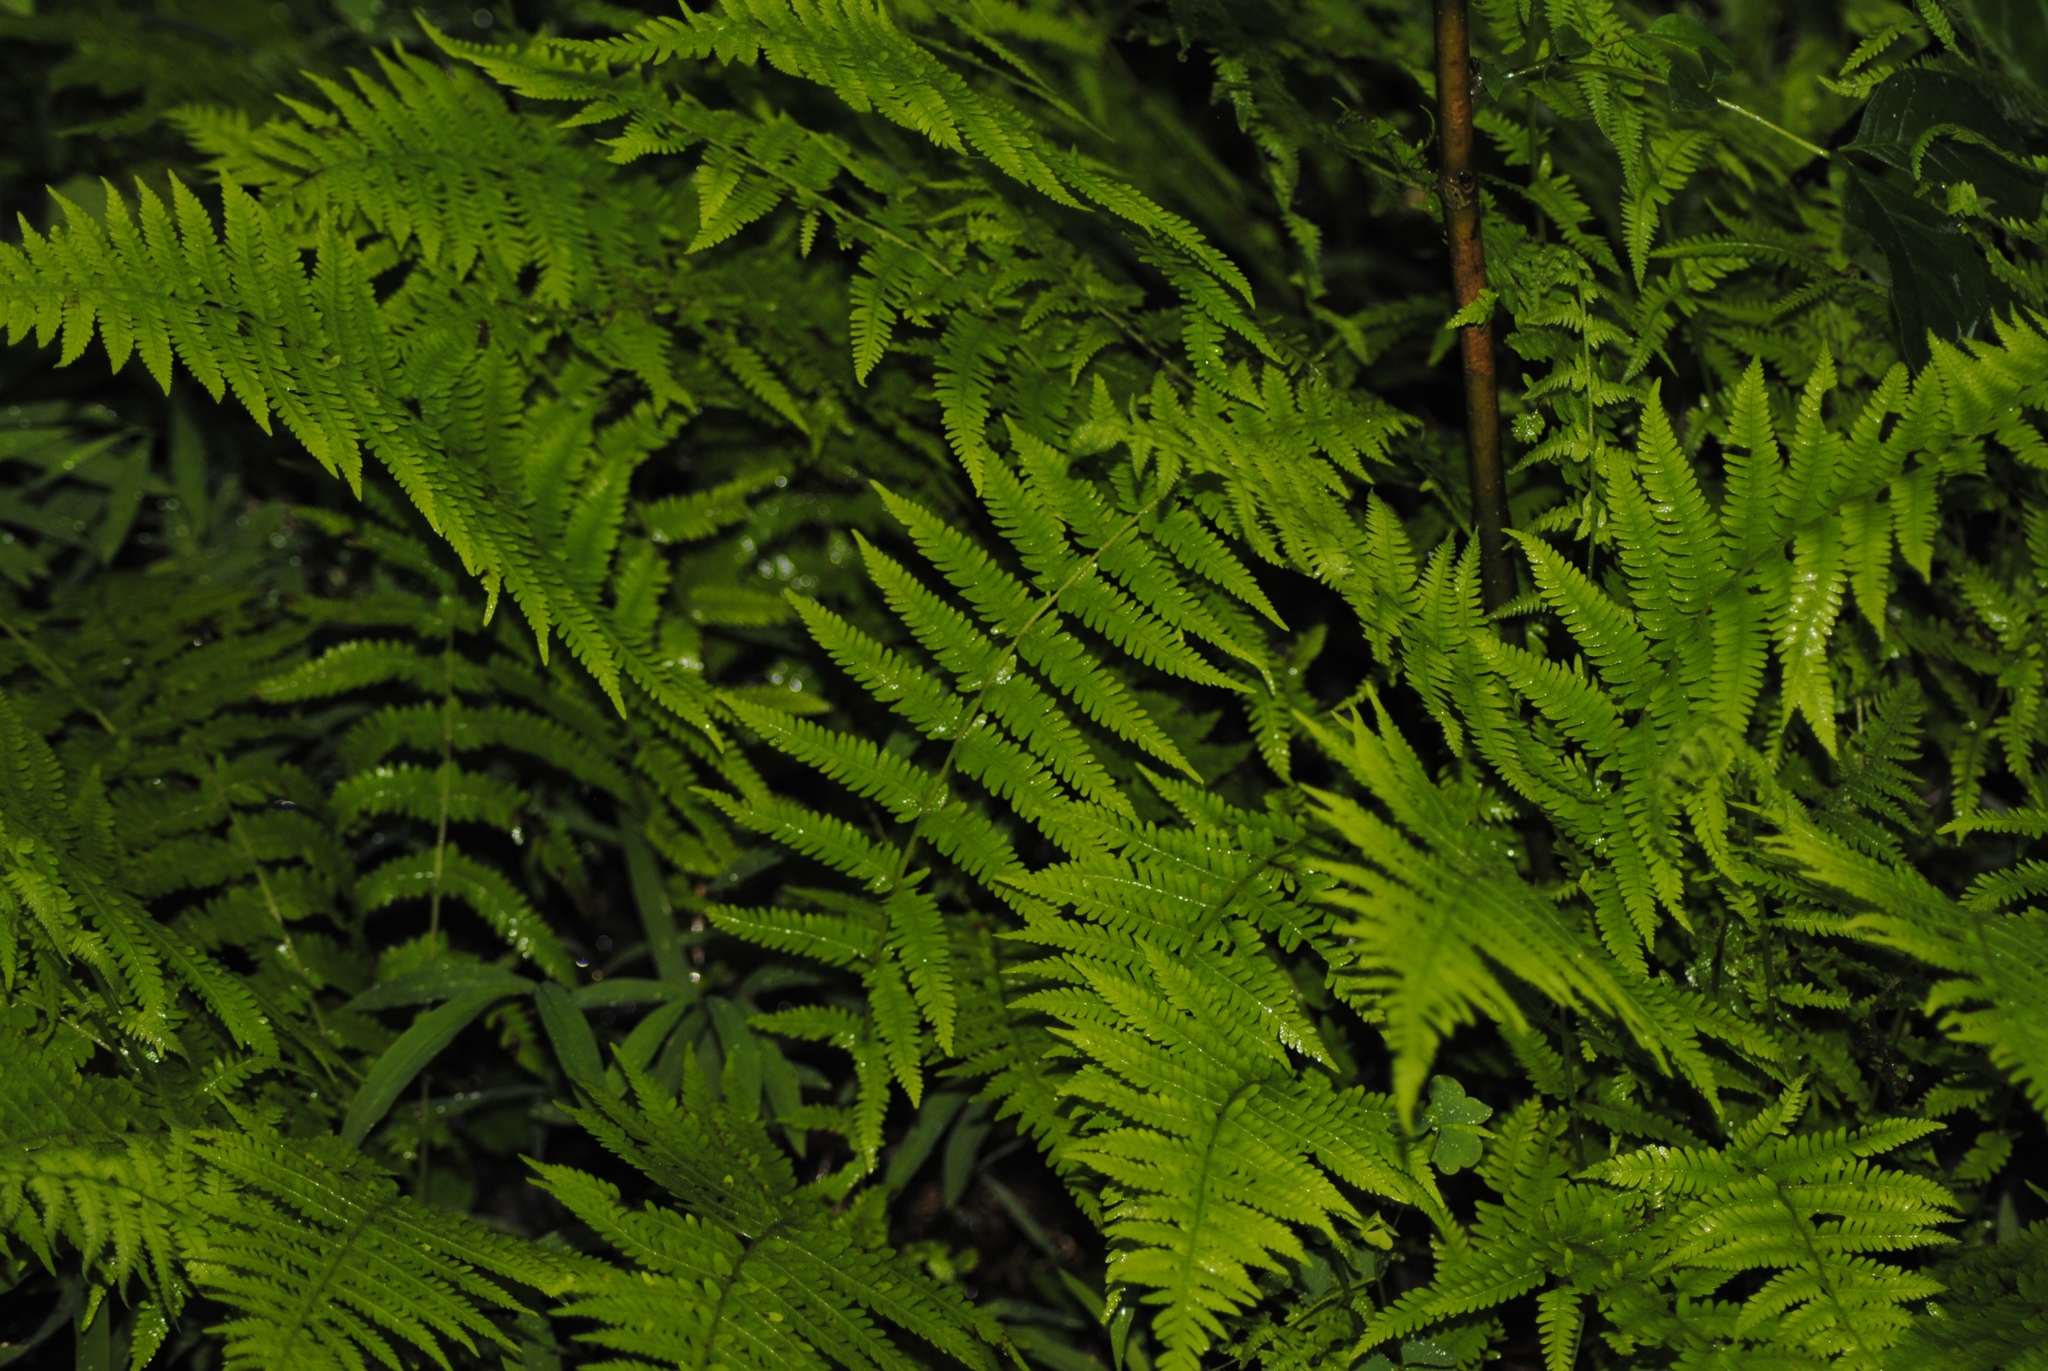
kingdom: Plantae
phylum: Tracheophyta
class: Polypodiopsida
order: Polypodiales
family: Thelypteridaceae
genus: Amauropelta
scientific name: Amauropelta noveboracensis
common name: New york fern
